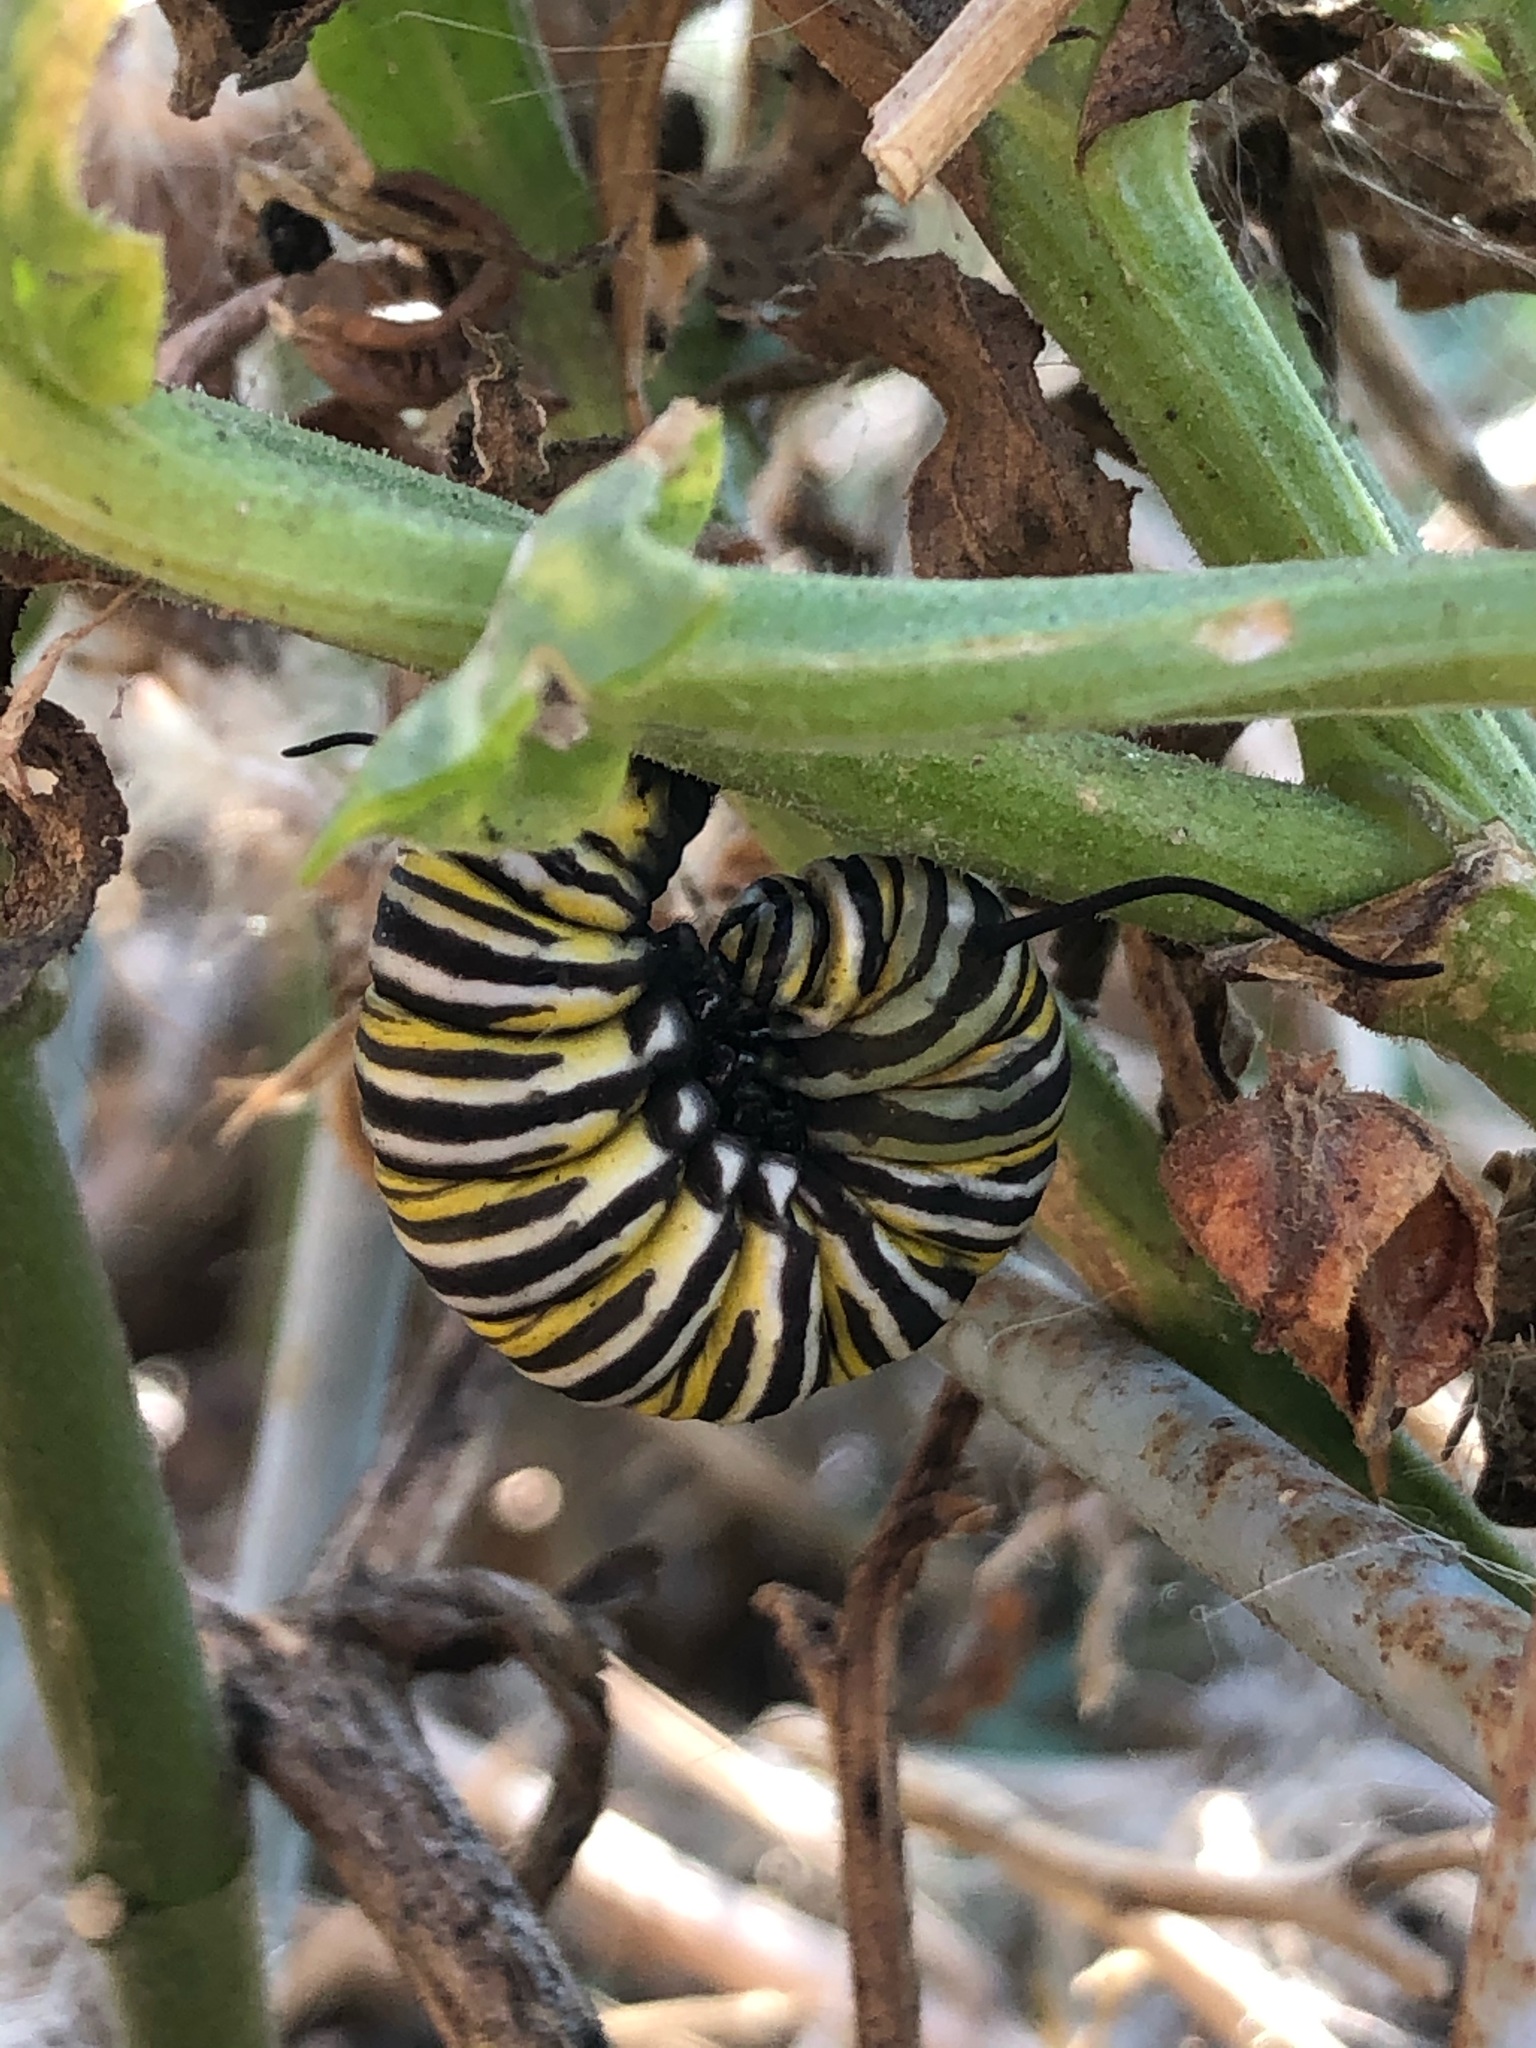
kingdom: Animalia
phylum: Arthropoda
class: Insecta
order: Lepidoptera
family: Nymphalidae
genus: Danaus
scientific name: Danaus plexippus
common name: Monarch
